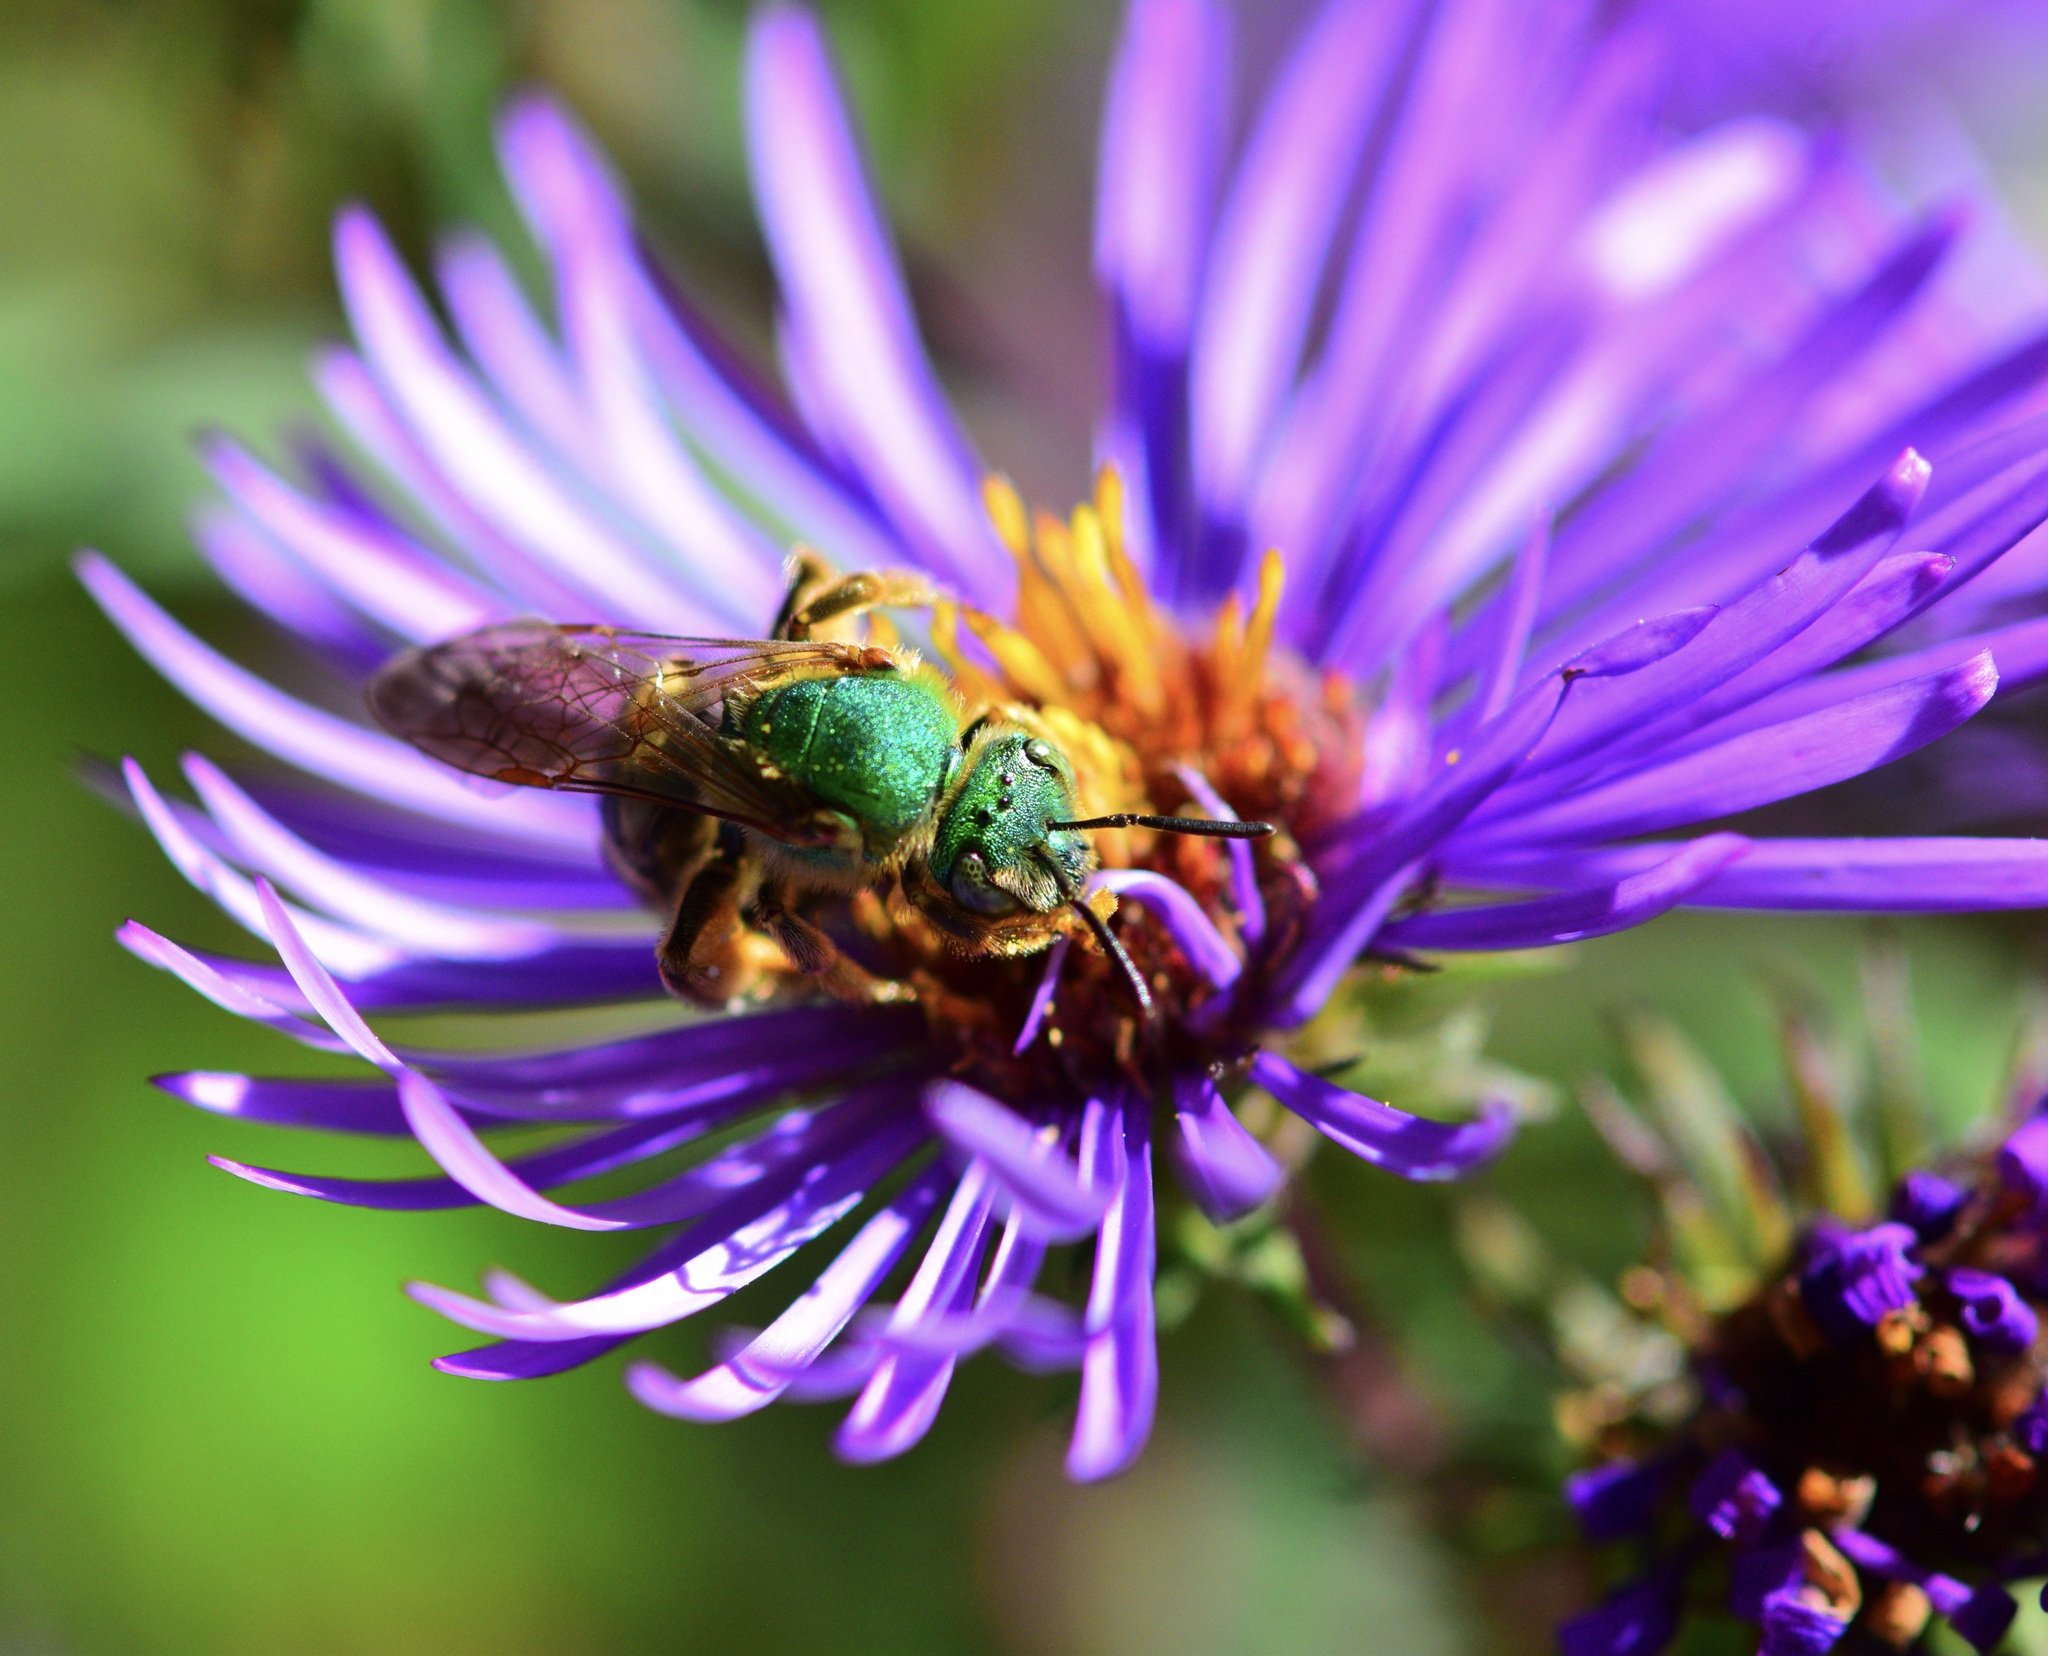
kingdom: Animalia
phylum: Arthropoda
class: Insecta
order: Hymenoptera
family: Halictidae
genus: Agapostemon
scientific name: Agapostemon virescens
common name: Bicolored striped sweat bee
